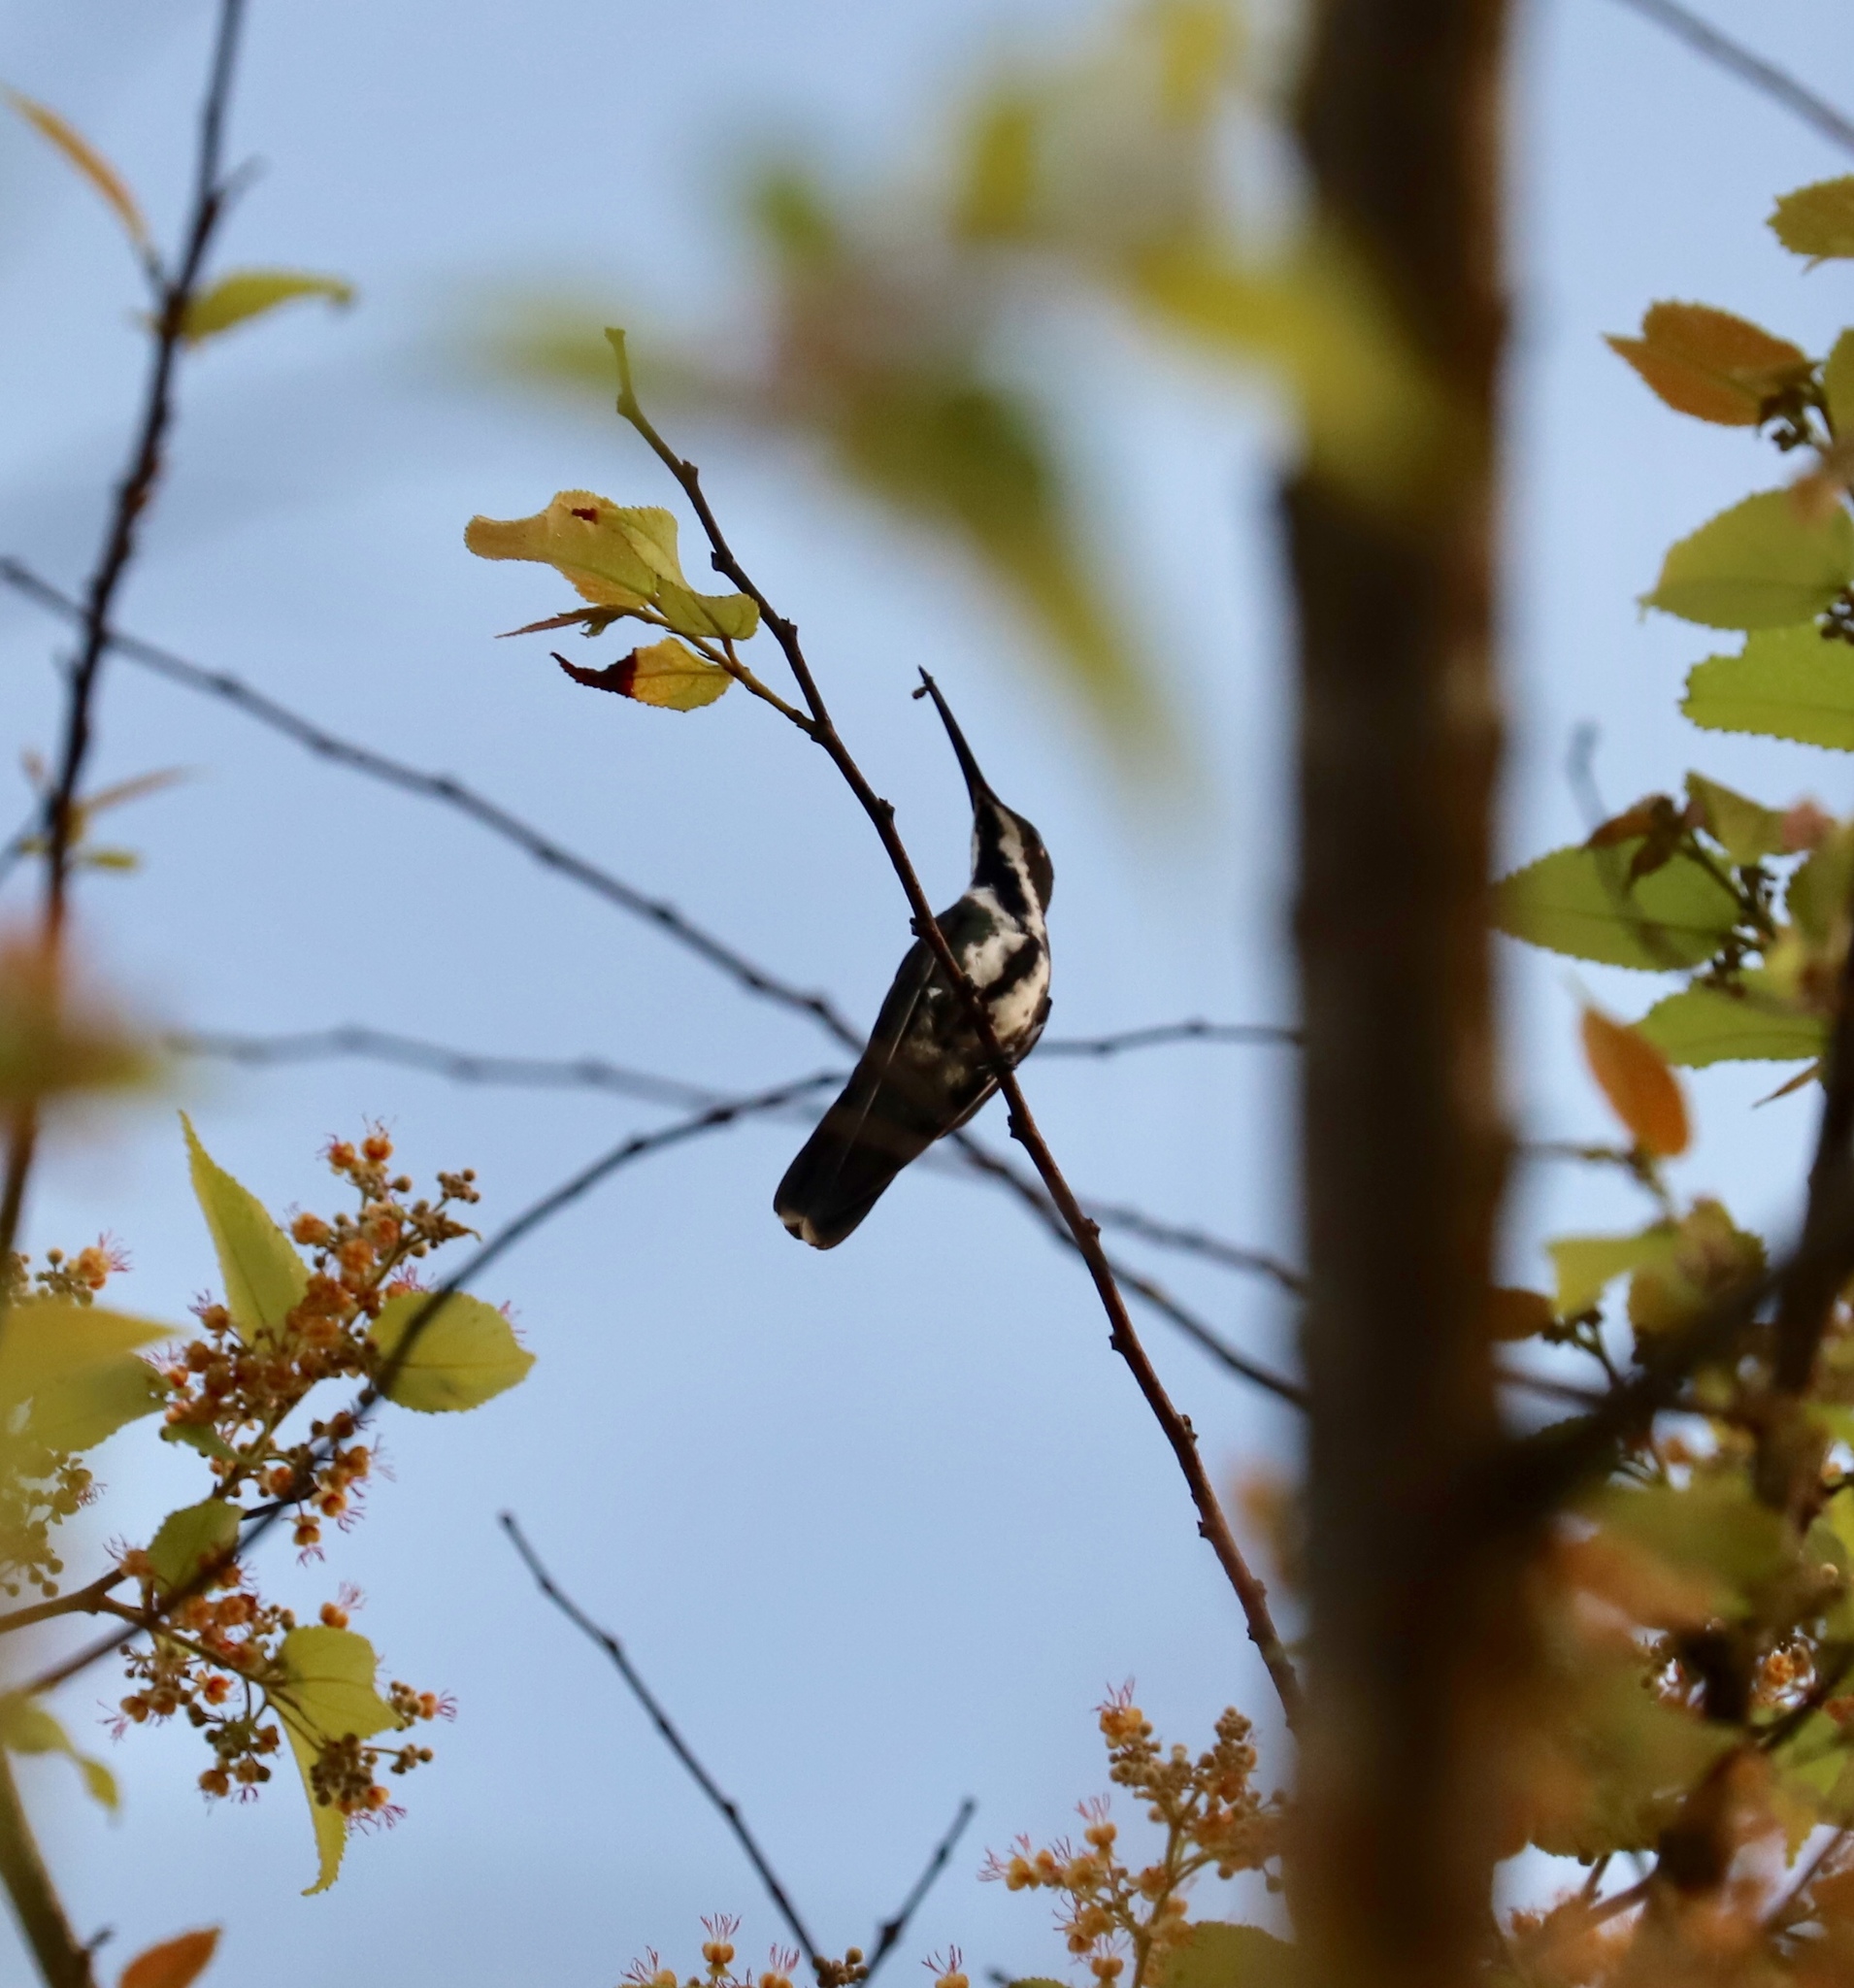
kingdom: Animalia
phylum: Chordata
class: Aves
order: Apodiformes
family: Trochilidae
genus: Anthracothorax
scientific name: Anthracothorax nigricollis
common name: Black-throated mango
